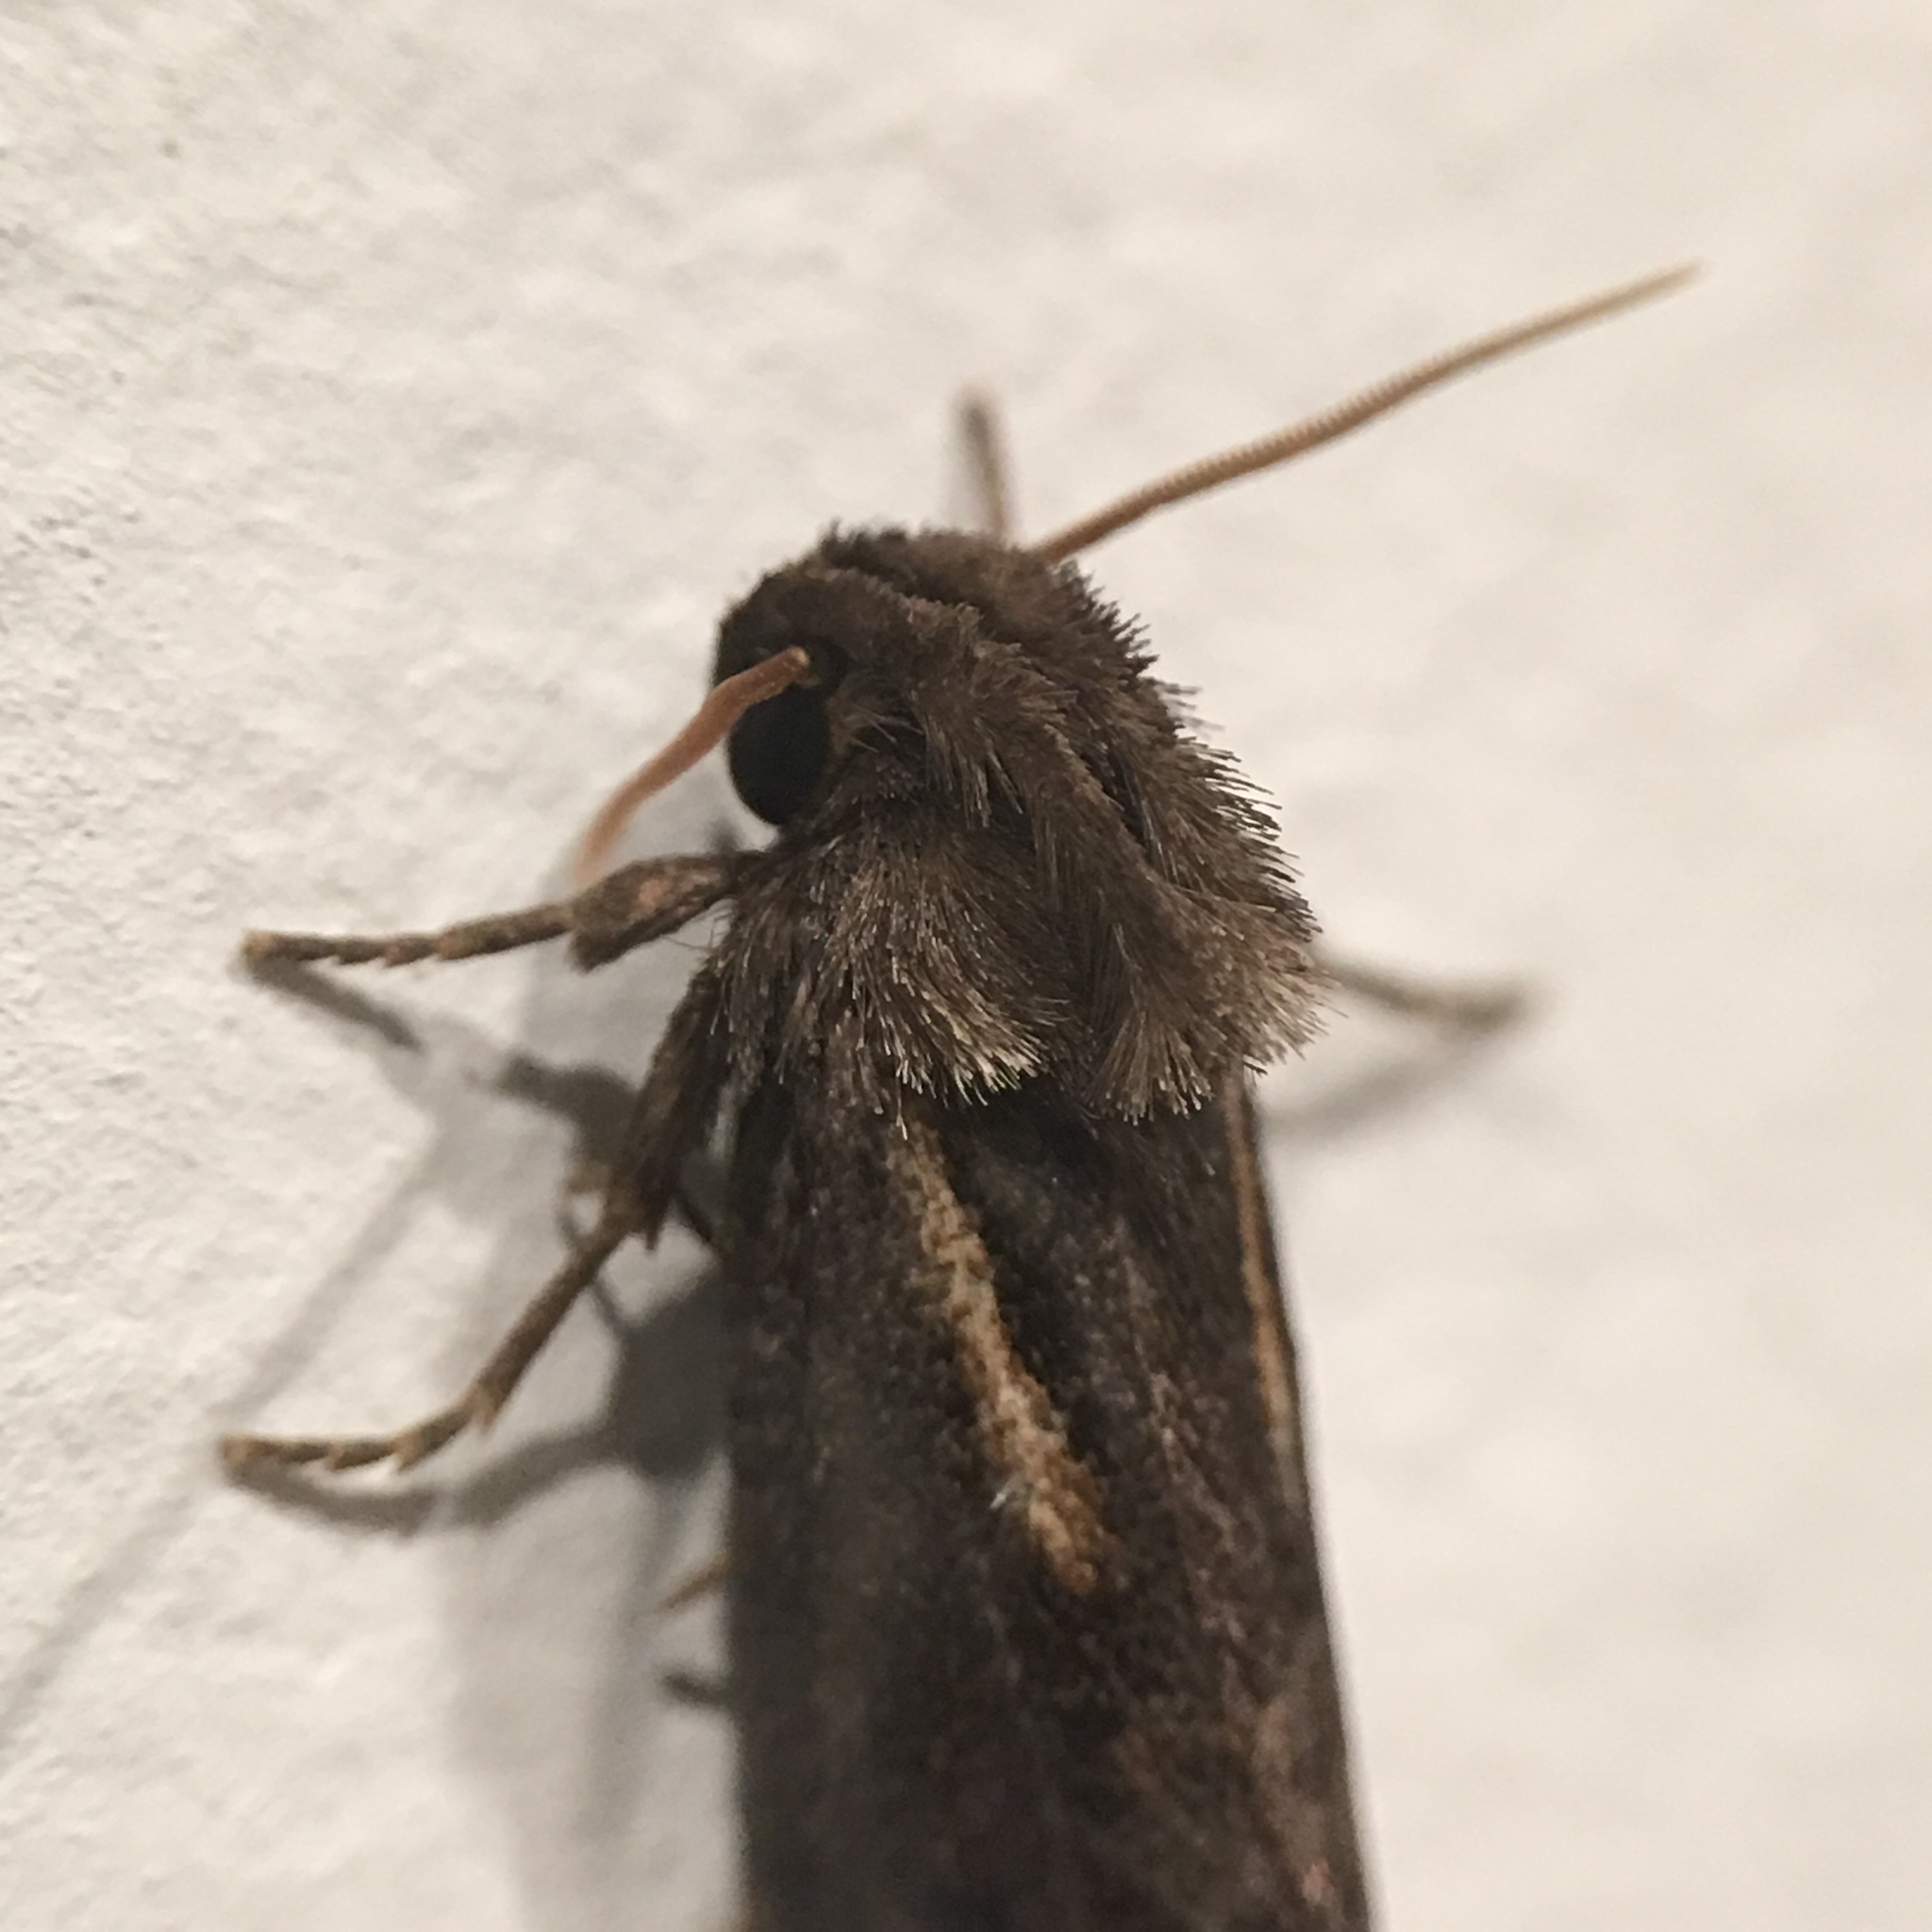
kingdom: Animalia
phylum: Arthropoda
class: Insecta
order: Lepidoptera
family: Tineidae
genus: Acrolophus
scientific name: Acrolophus popeanella
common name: Clemens' grass tubeworm moth
